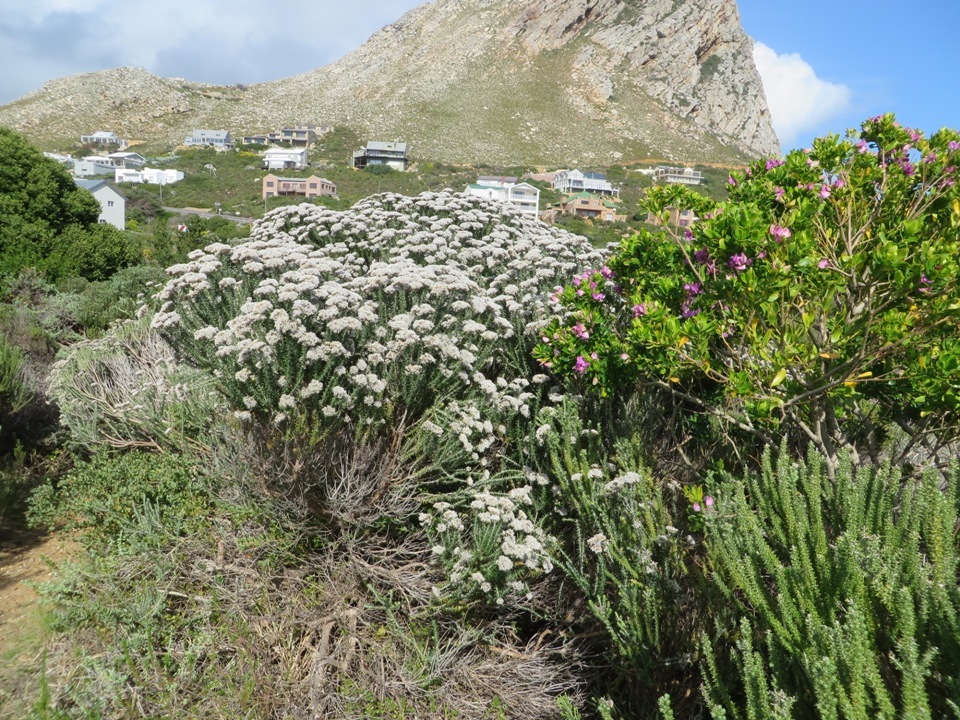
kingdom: Plantae
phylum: Tracheophyta
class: Magnoliopsida
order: Asterales
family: Asteraceae
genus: Metalasia
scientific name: Metalasia muricata
